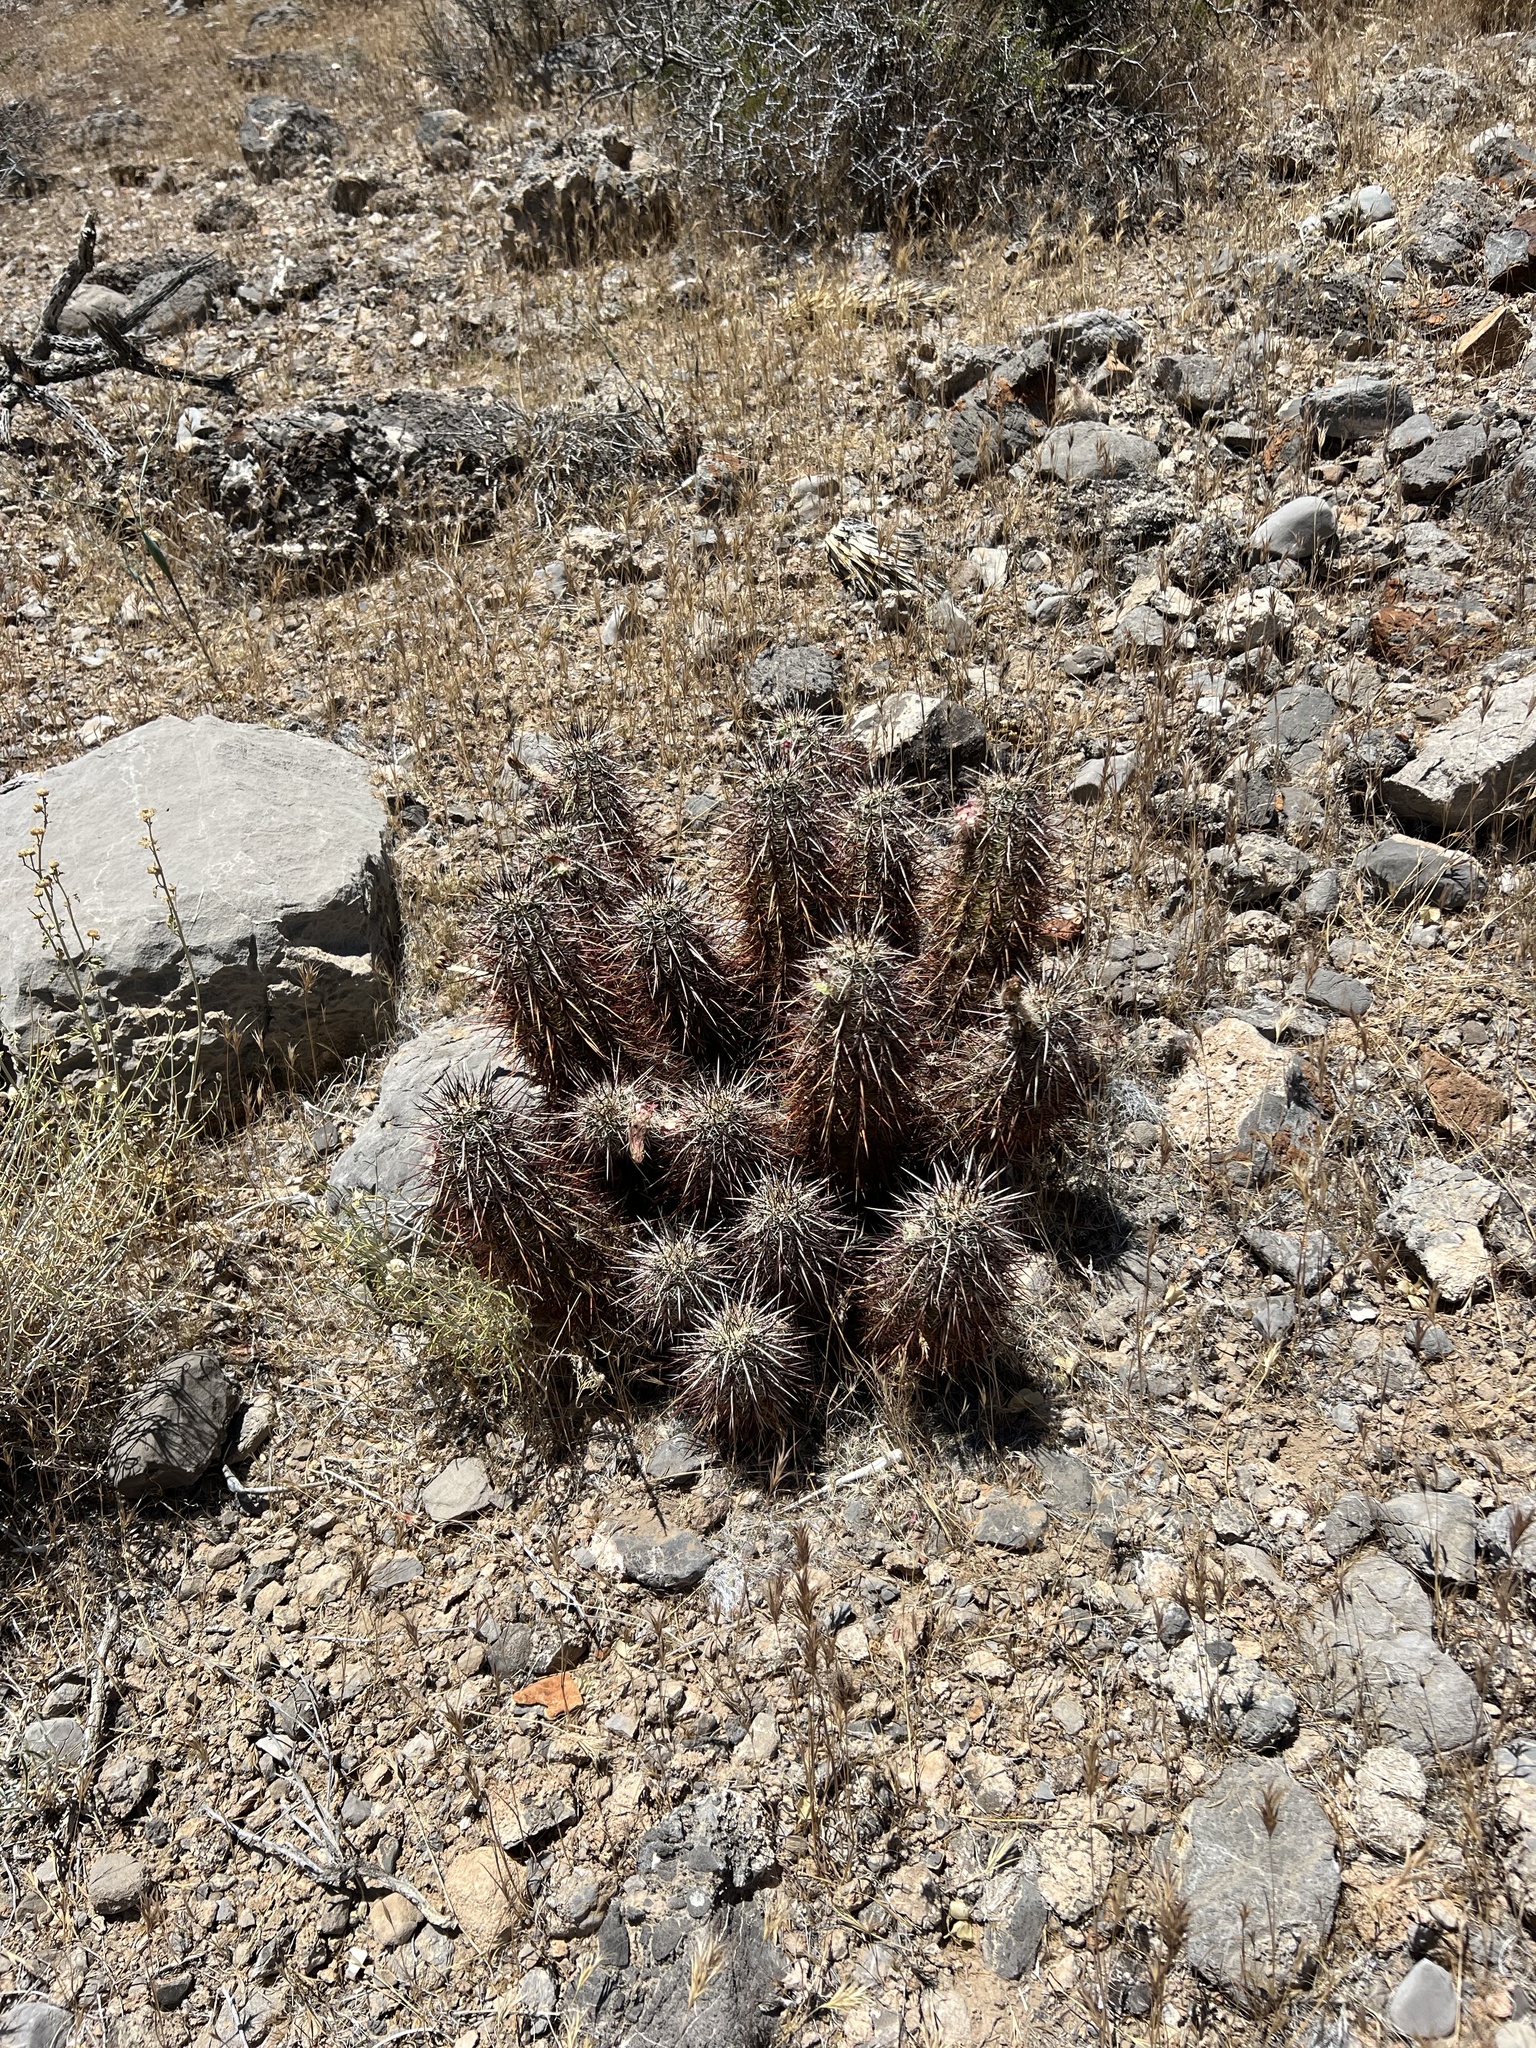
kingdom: Plantae
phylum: Tracheophyta
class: Magnoliopsida
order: Caryophyllales
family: Cactaceae
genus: Echinocereus
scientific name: Echinocereus engelmannii
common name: Engelmann's hedgehog cactus
